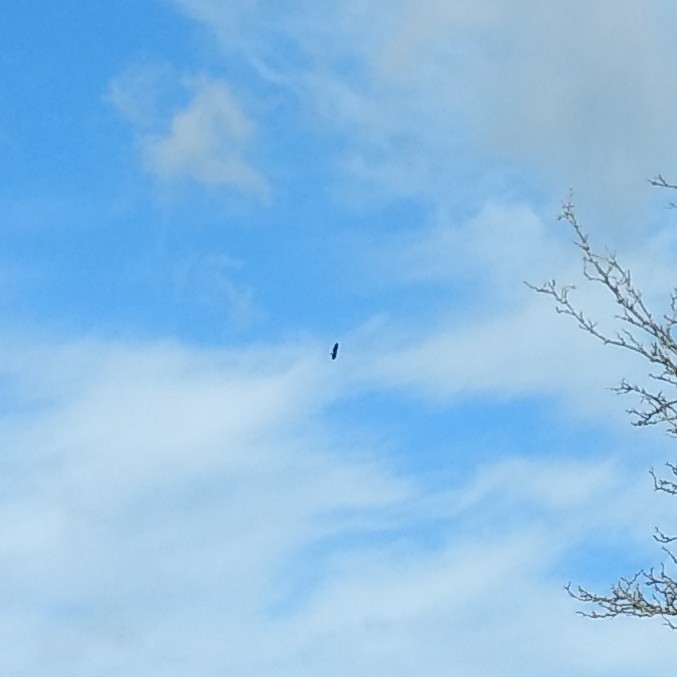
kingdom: Animalia
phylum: Chordata
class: Aves
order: Accipitriformes
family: Accipitridae
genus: Haliaeetus
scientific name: Haliaeetus leucocephalus
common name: Bald eagle
